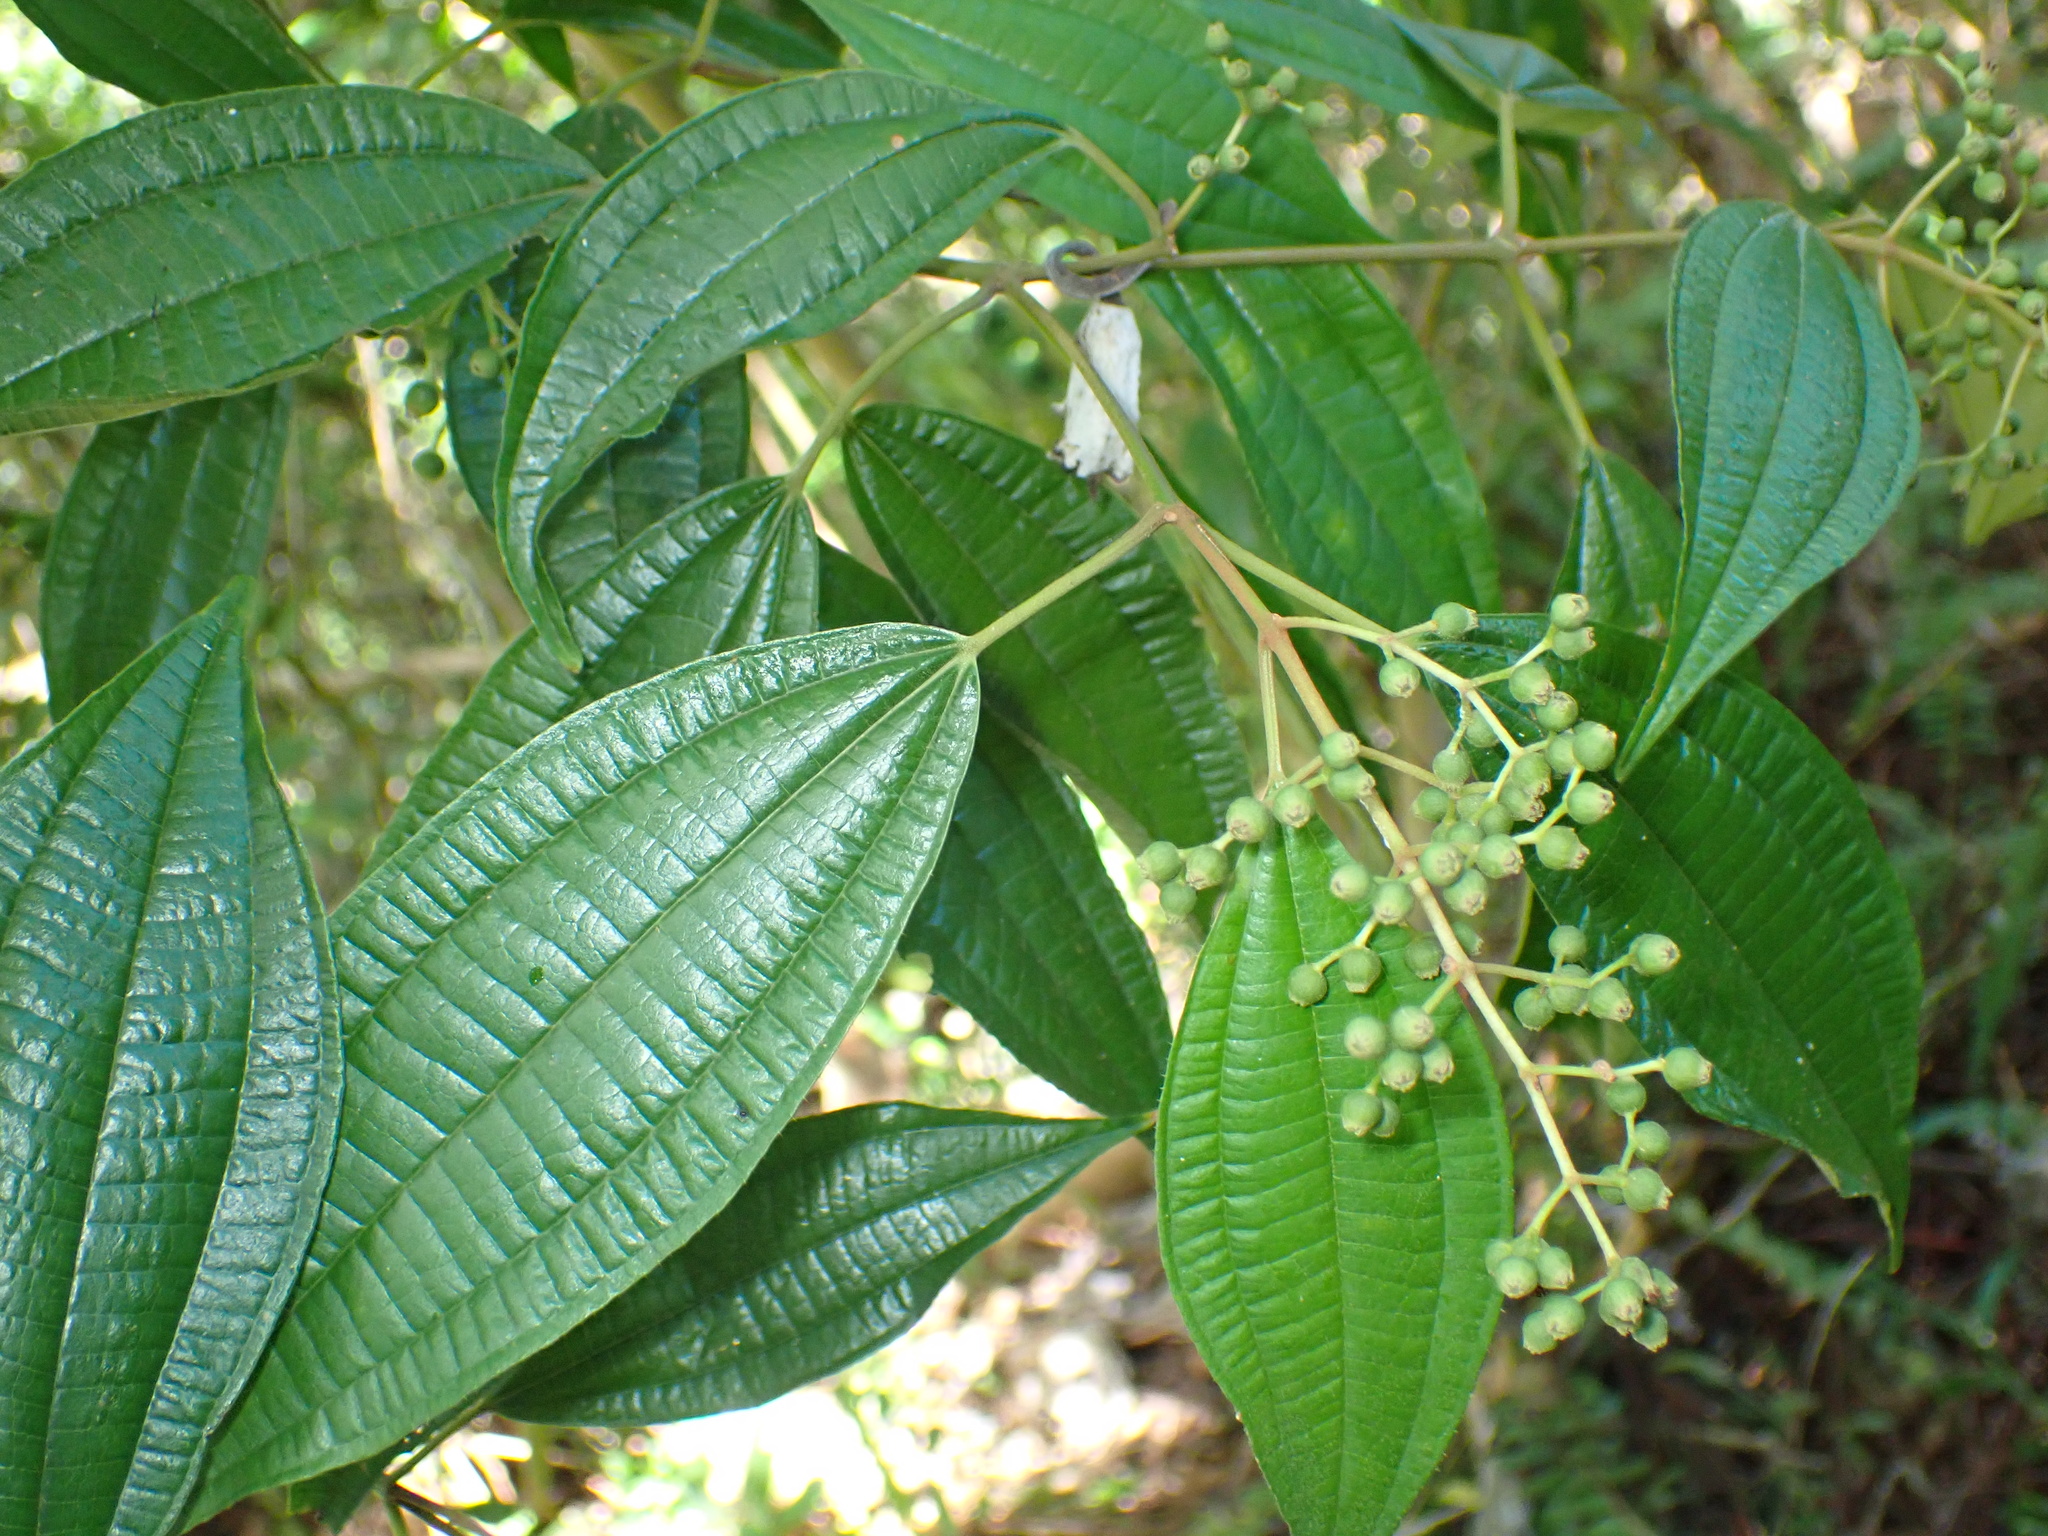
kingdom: Plantae
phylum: Tracheophyta
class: Magnoliopsida
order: Myrtales
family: Melastomataceae
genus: Miconia
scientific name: Miconia laevigata
